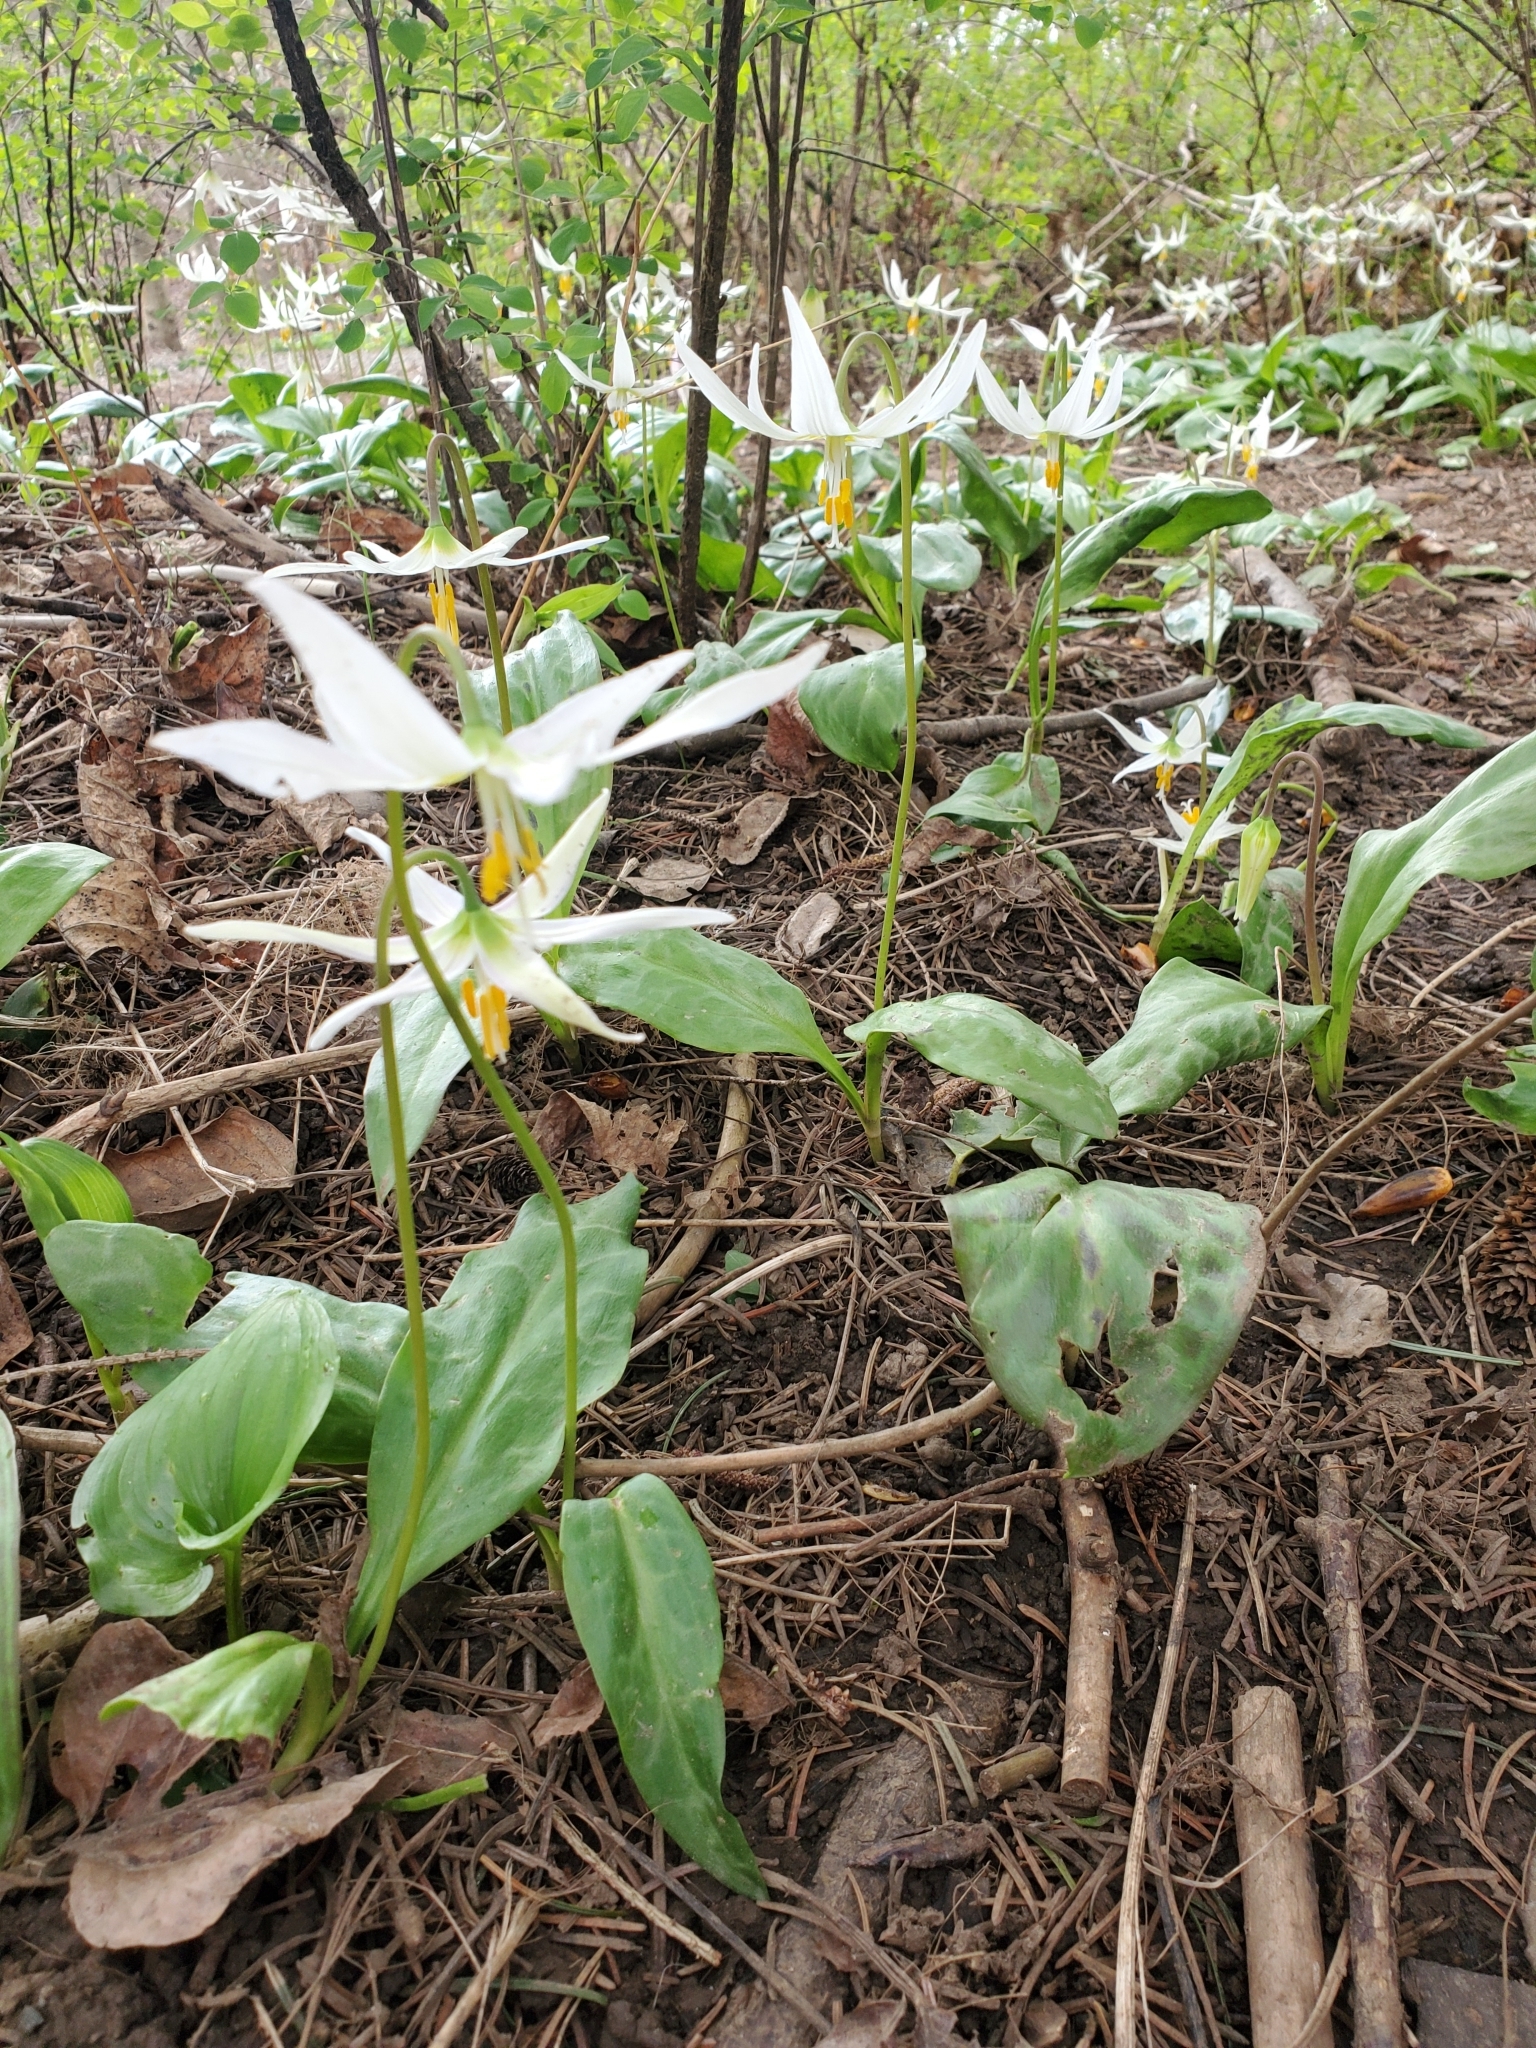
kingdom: Plantae
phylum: Tracheophyta
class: Liliopsida
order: Liliales
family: Liliaceae
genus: Erythronium
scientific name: Erythronium oregonum
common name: Giant adder's-tongue
